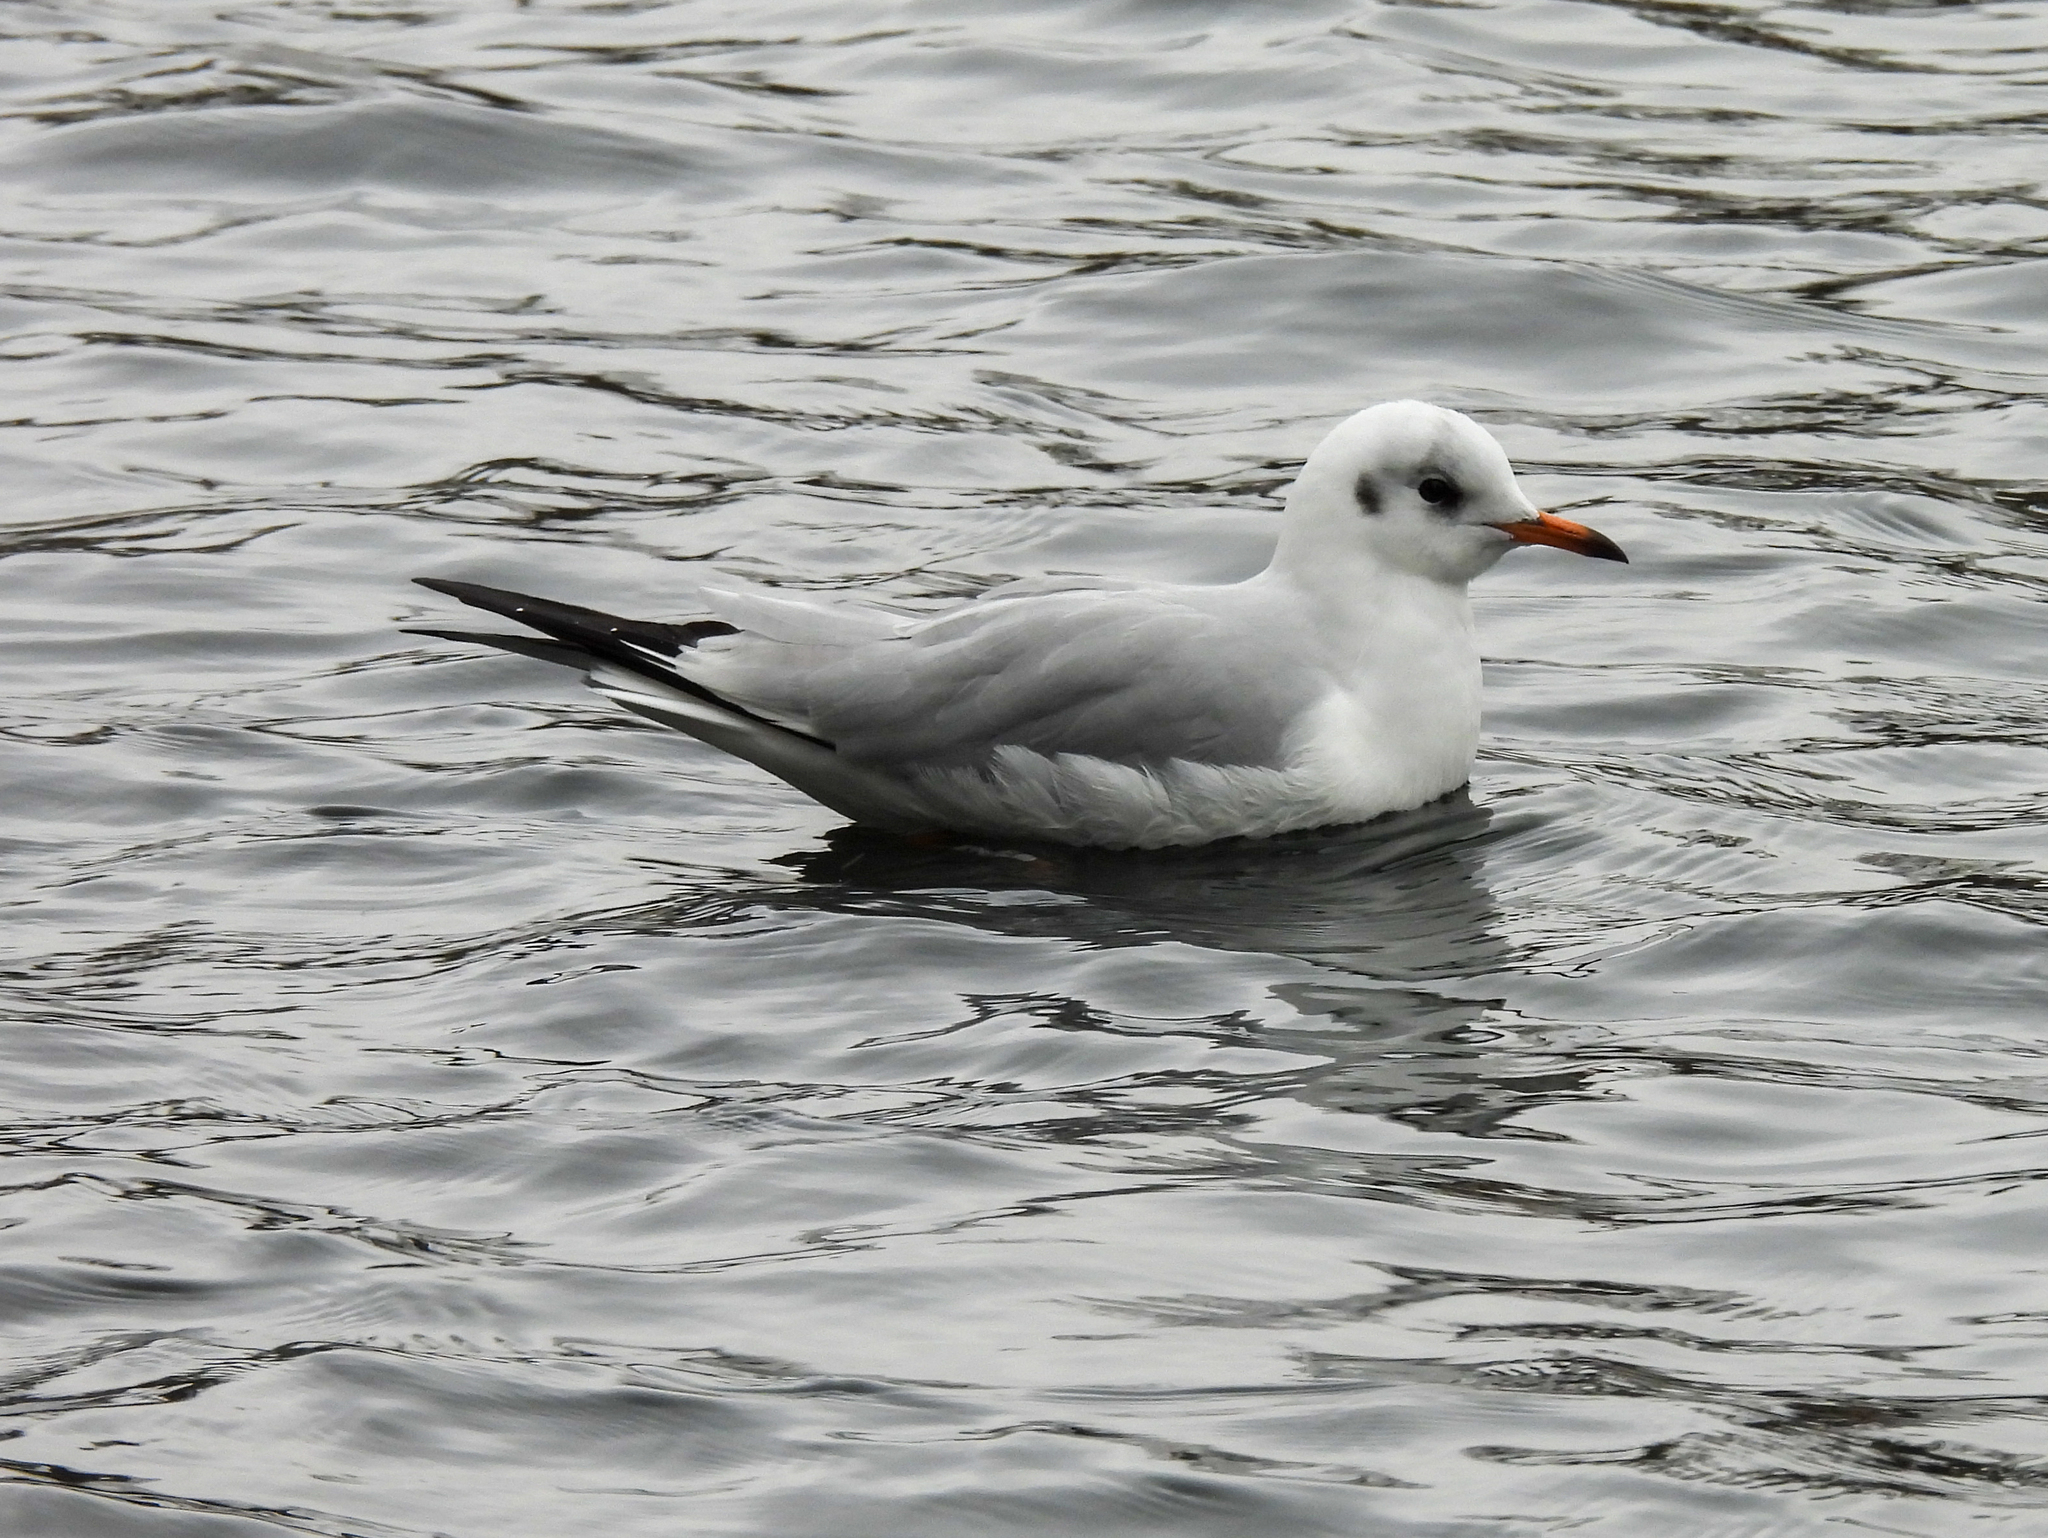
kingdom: Animalia
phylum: Chordata
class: Aves
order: Charadriiformes
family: Laridae
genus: Chroicocephalus
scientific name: Chroicocephalus ridibundus
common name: Black-headed gull
